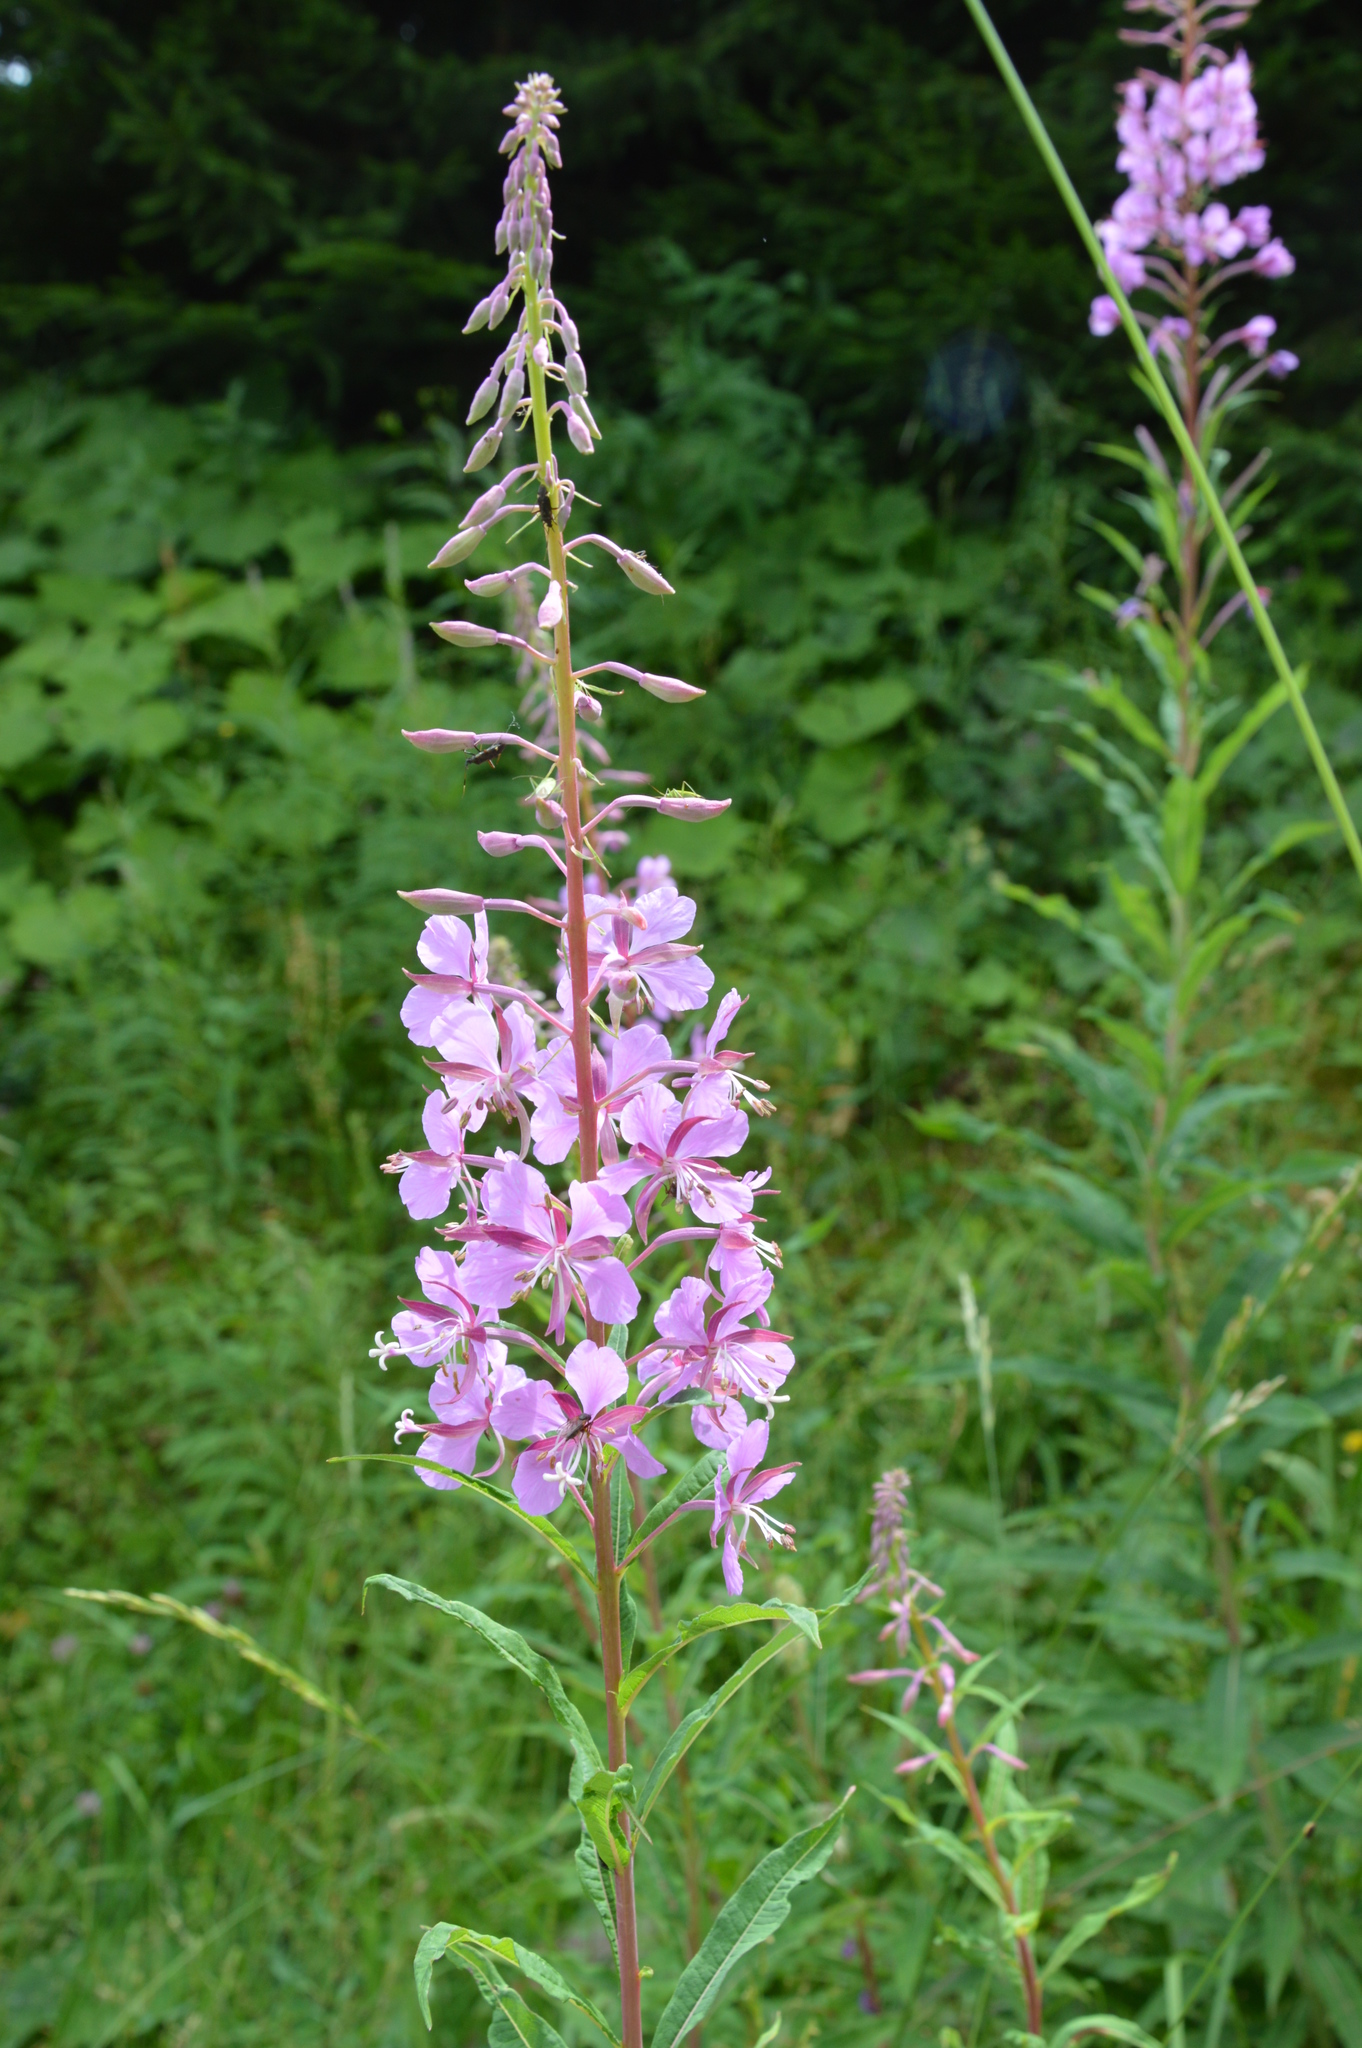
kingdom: Plantae
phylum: Tracheophyta
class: Magnoliopsida
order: Myrtales
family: Onagraceae
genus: Chamaenerion
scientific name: Chamaenerion angustifolium
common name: Fireweed
